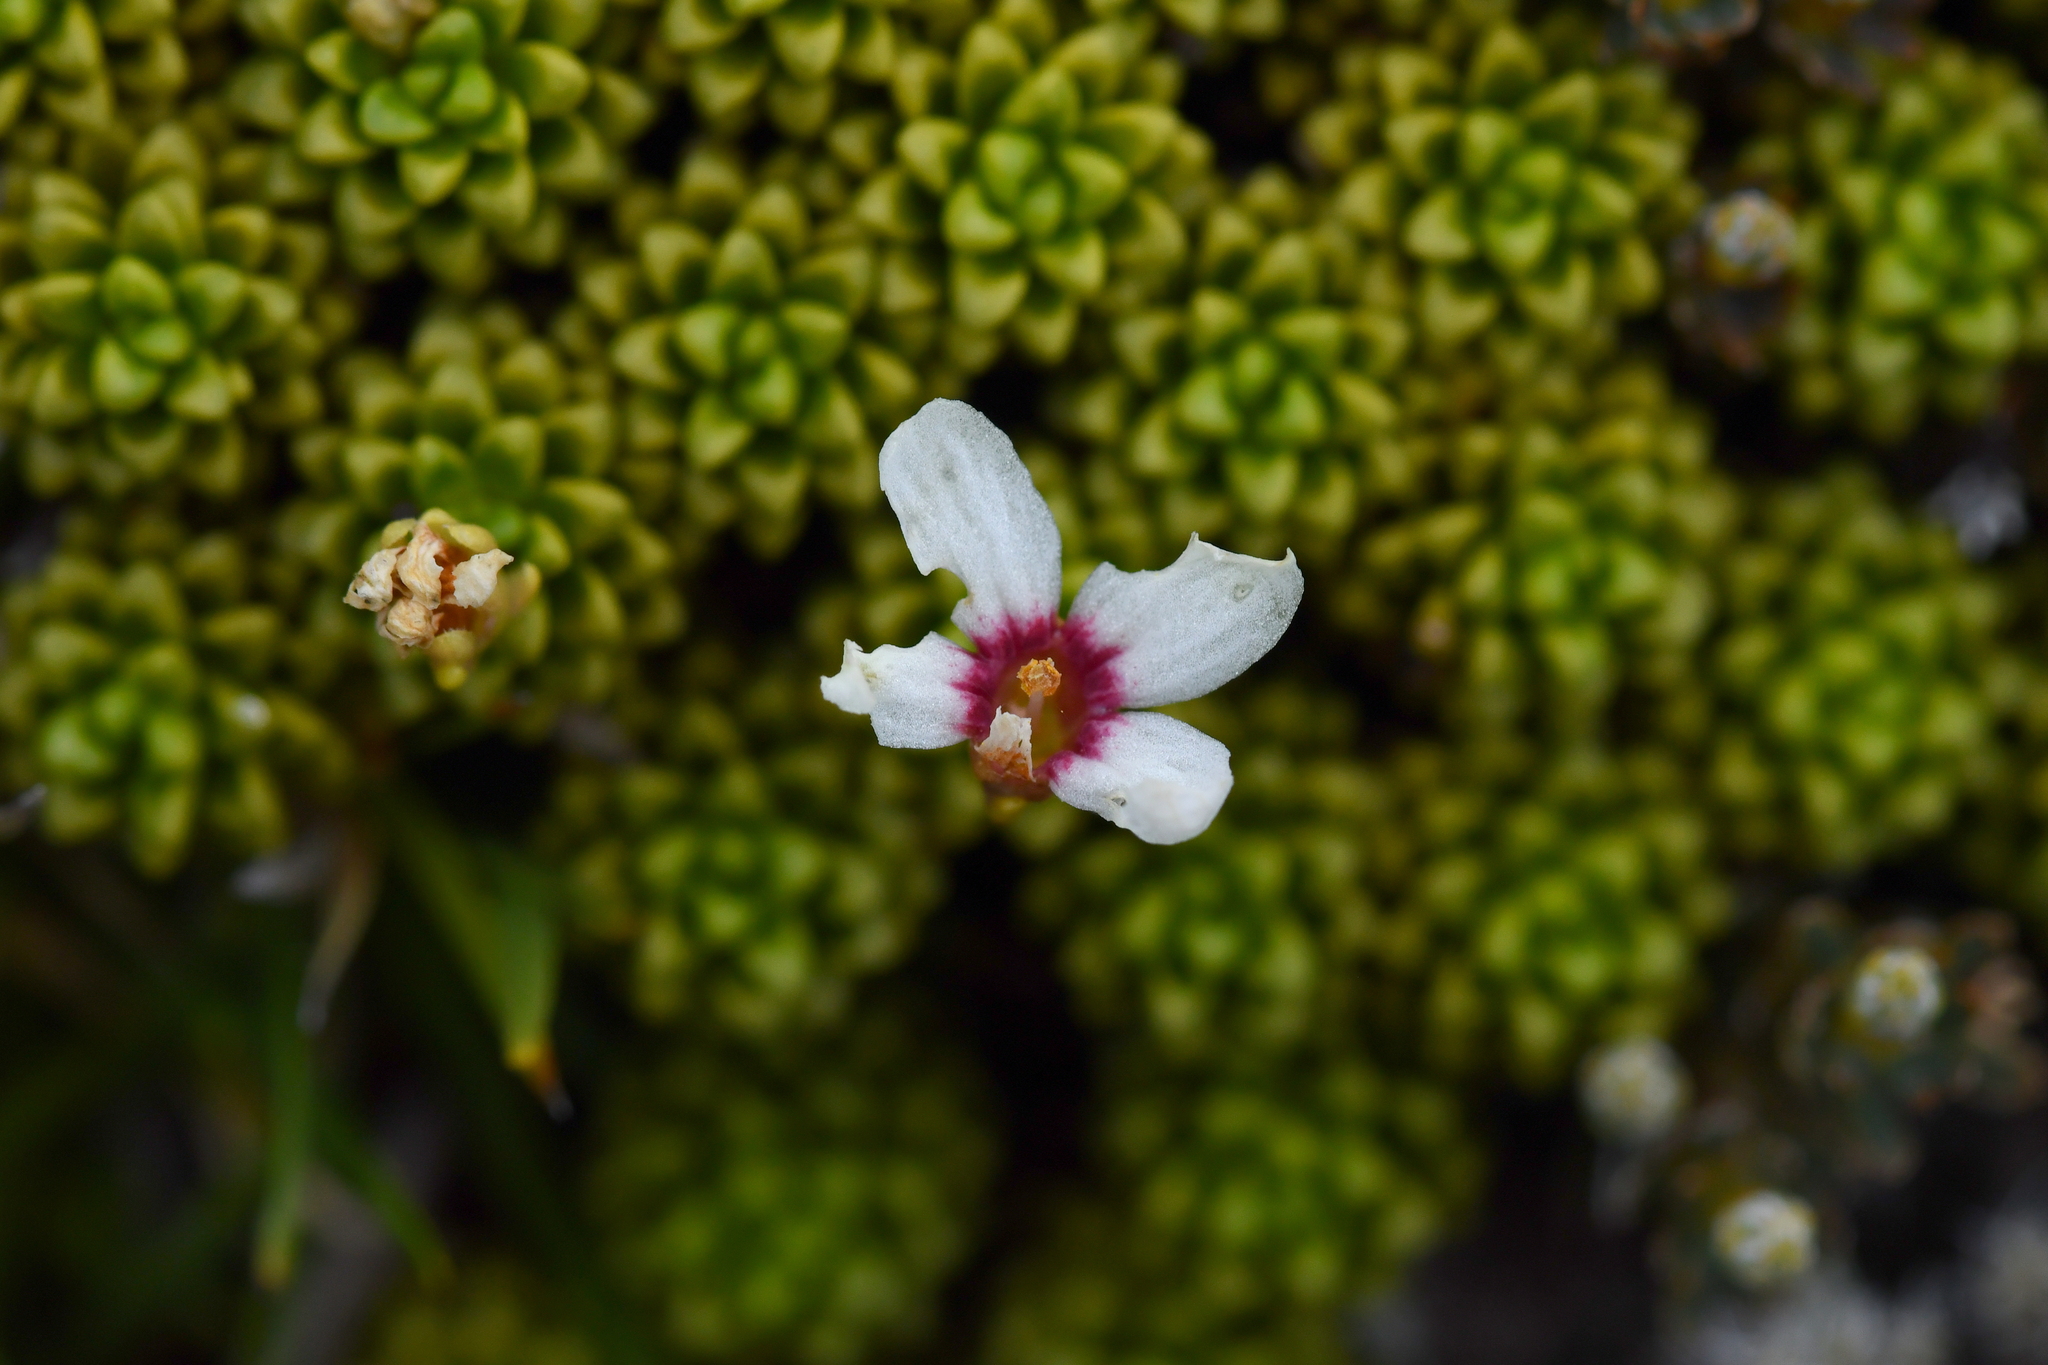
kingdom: Plantae
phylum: Tracheophyta
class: Magnoliopsida
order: Asterales
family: Stylidiaceae
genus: Forstera
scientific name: Forstera sedifolia
